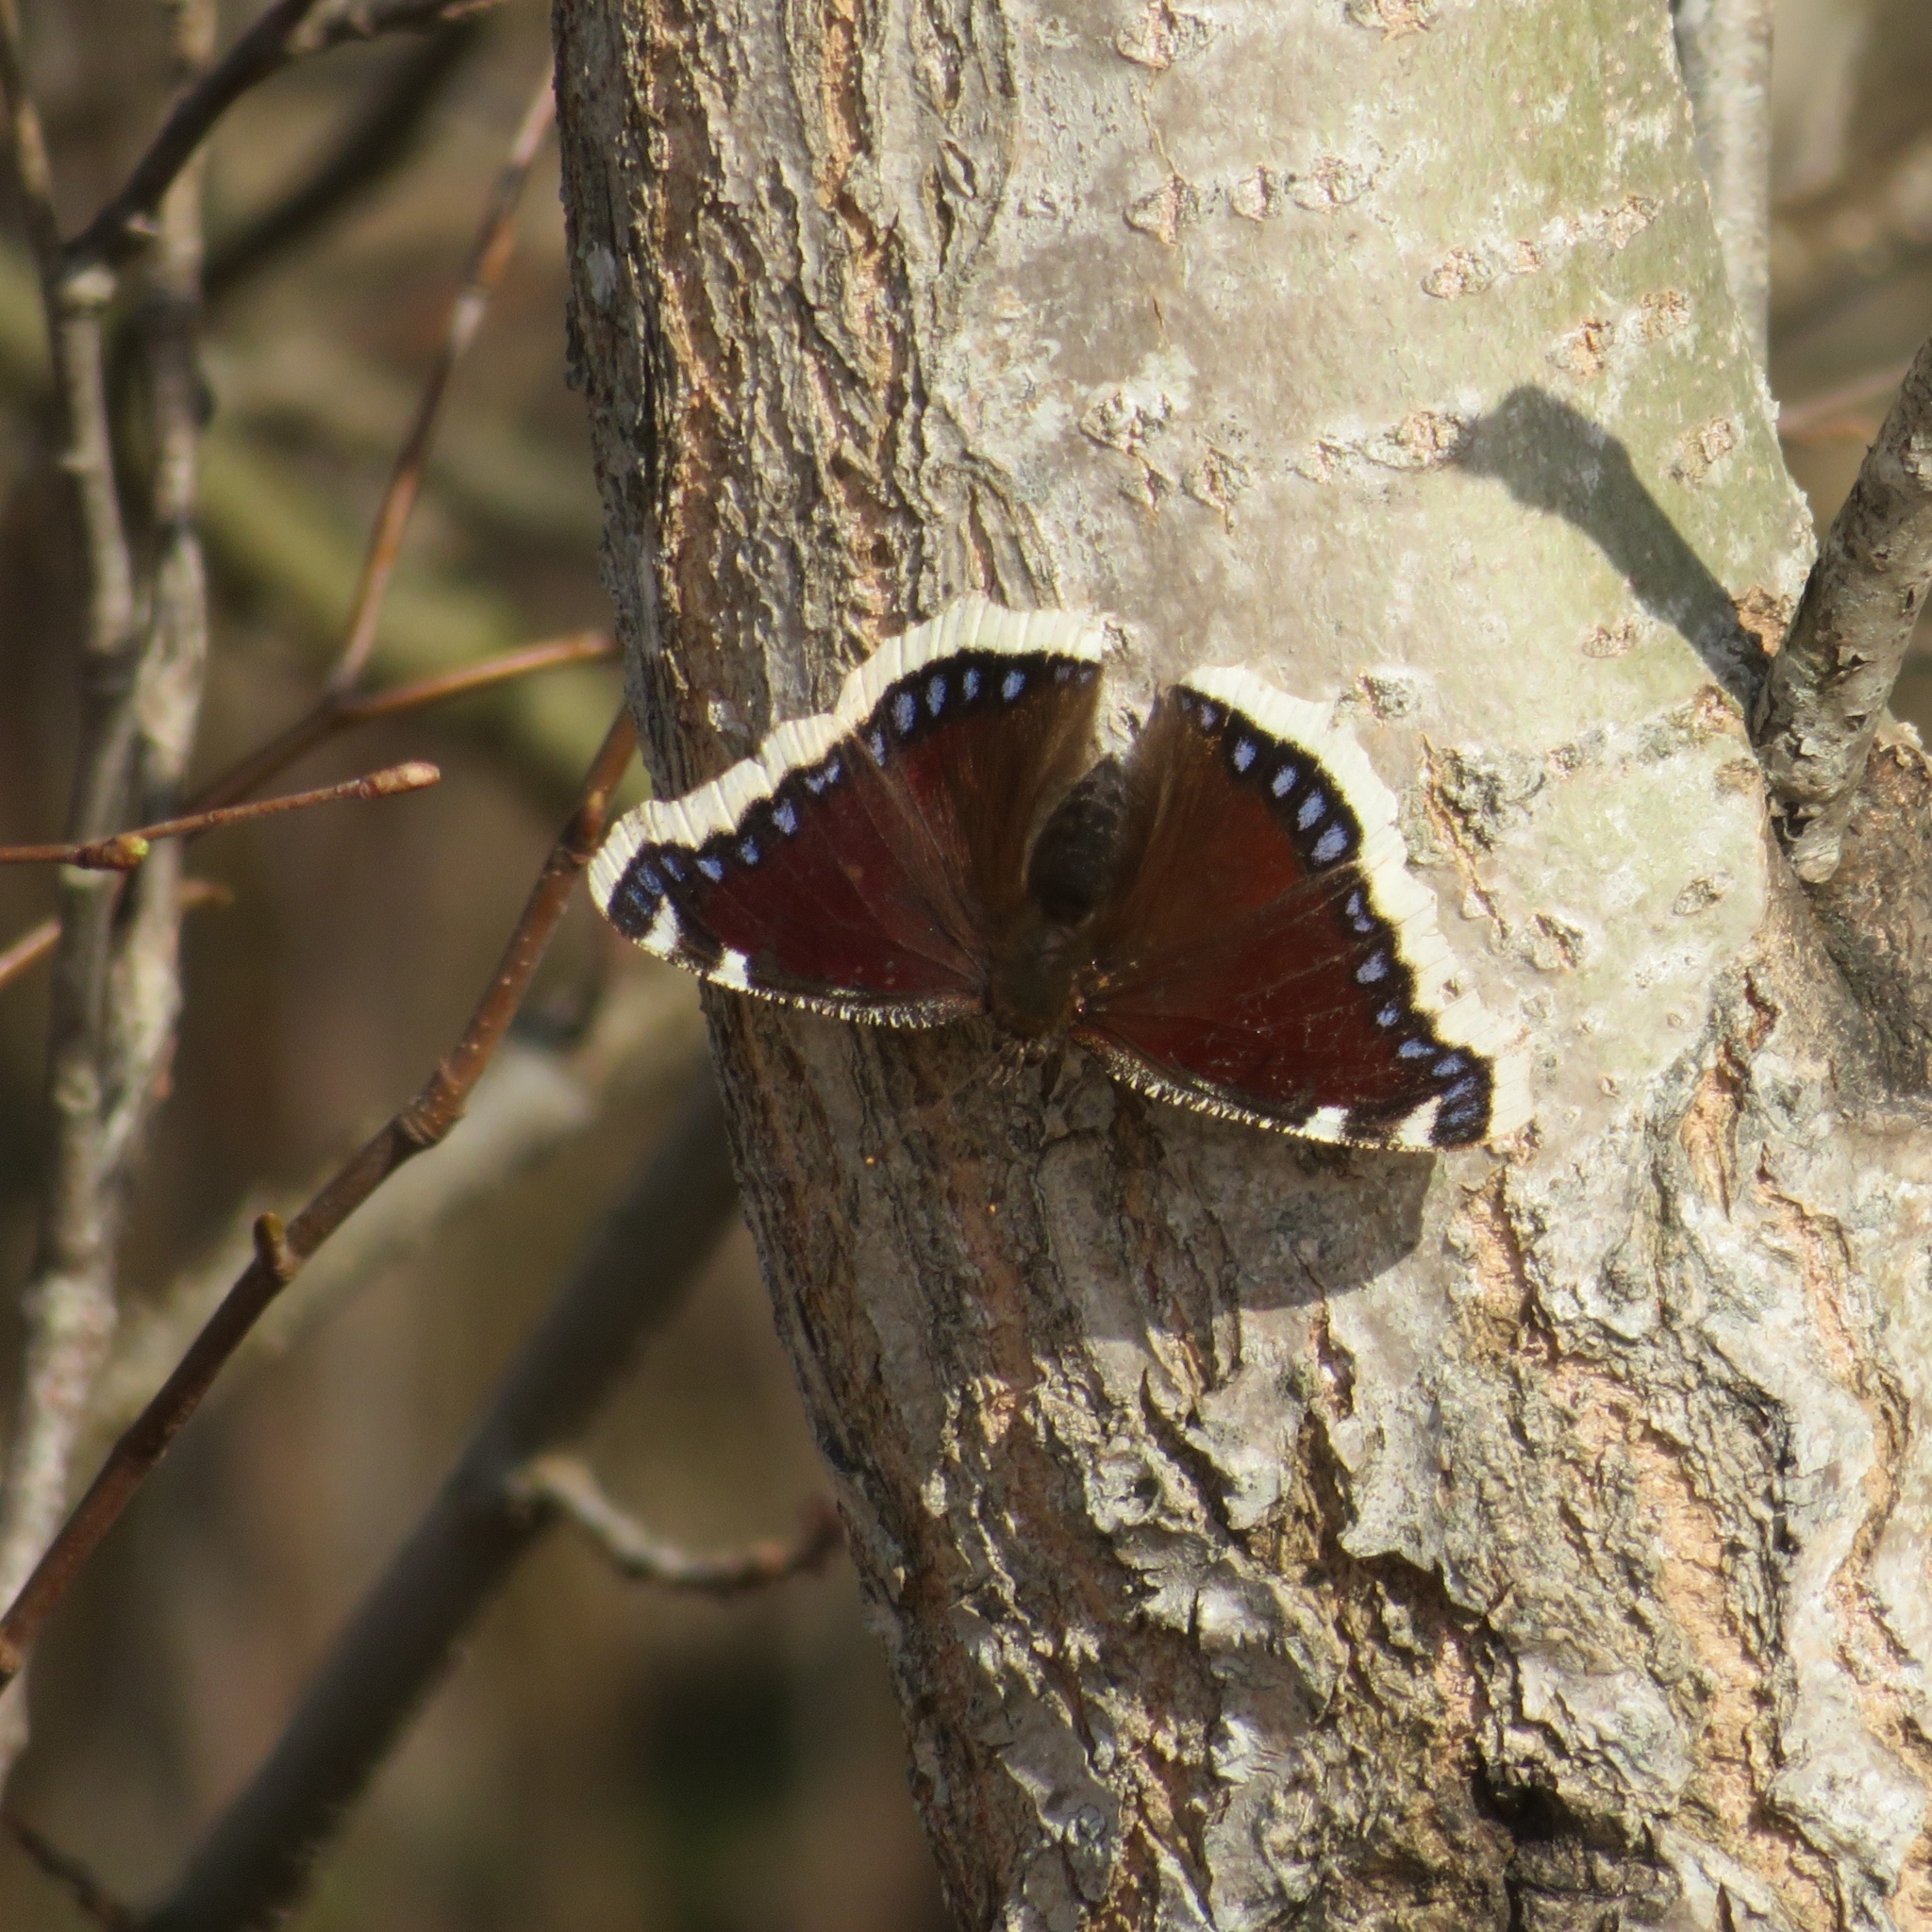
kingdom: Animalia
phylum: Arthropoda
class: Insecta
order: Lepidoptera
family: Nymphalidae
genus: Nymphalis
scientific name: Nymphalis antiopa
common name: Camberwell beauty
